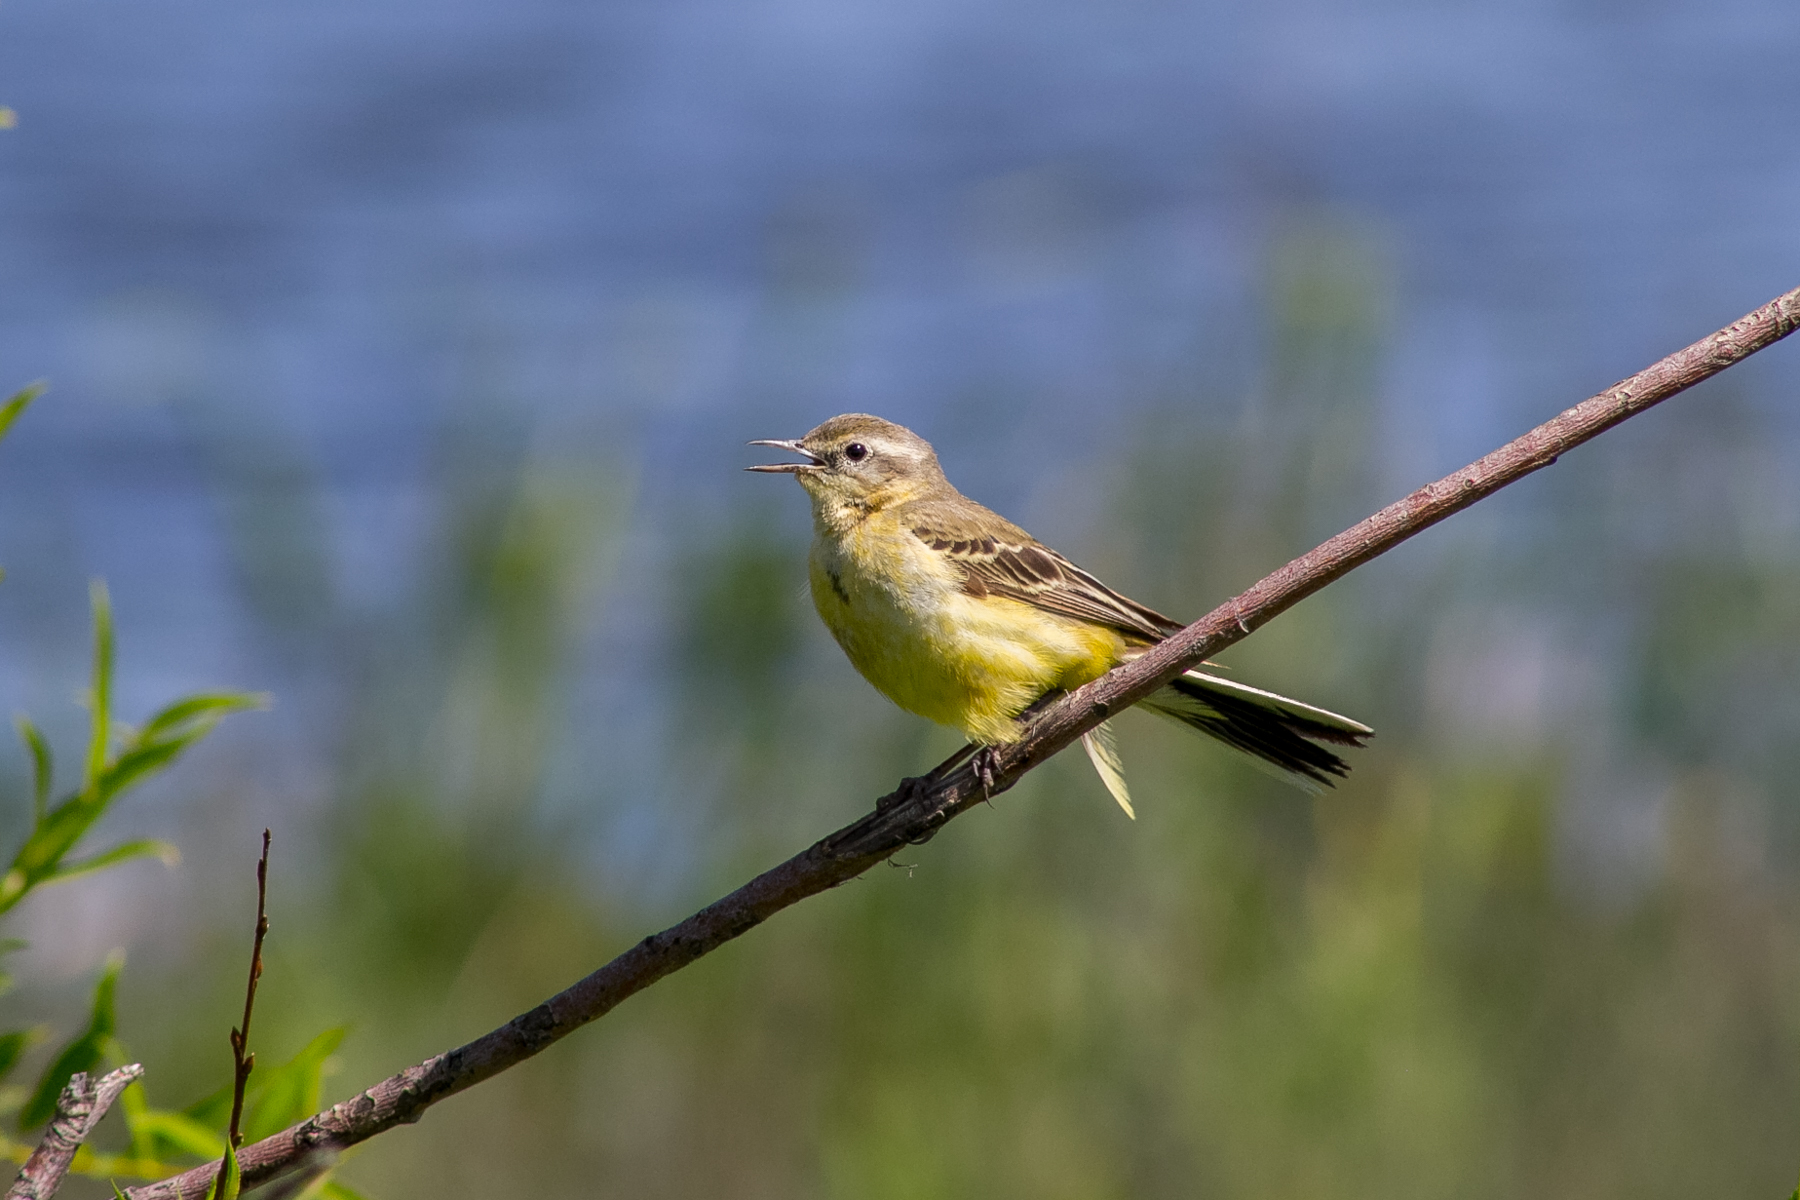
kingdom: Animalia
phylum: Chordata
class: Aves
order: Passeriformes
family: Motacillidae
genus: Motacilla
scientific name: Motacilla flava
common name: Western yellow wagtail
